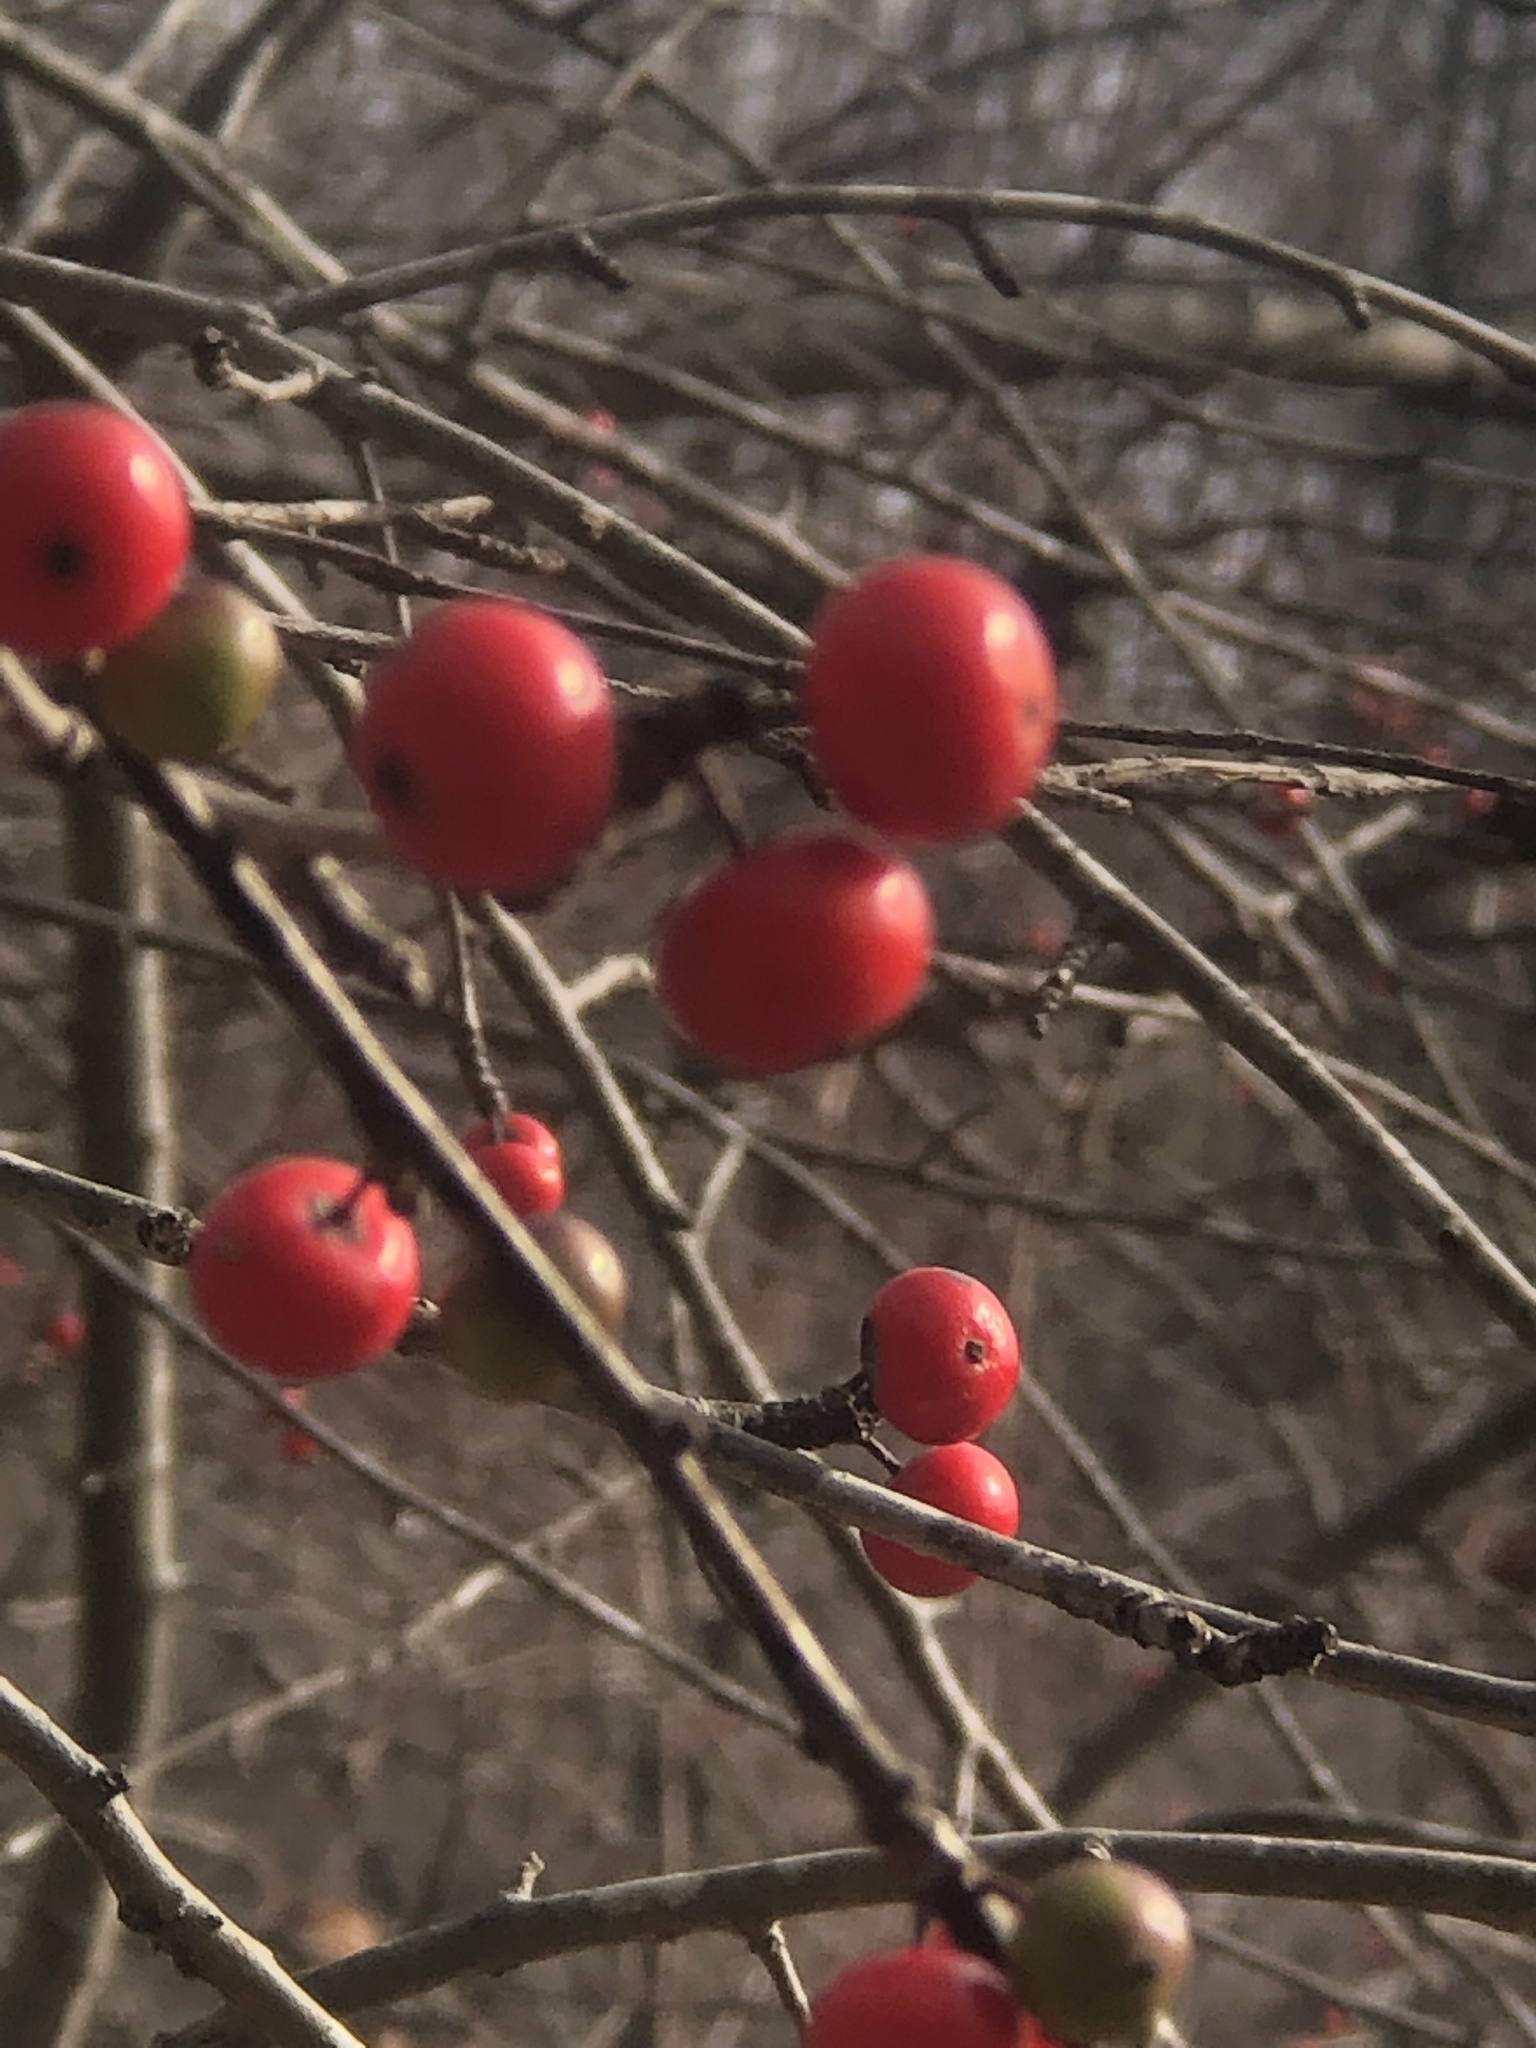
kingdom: Plantae
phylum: Tracheophyta
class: Magnoliopsida
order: Aquifoliales
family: Aquifoliaceae
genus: Ilex
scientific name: Ilex decidua
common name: Possum-haw
